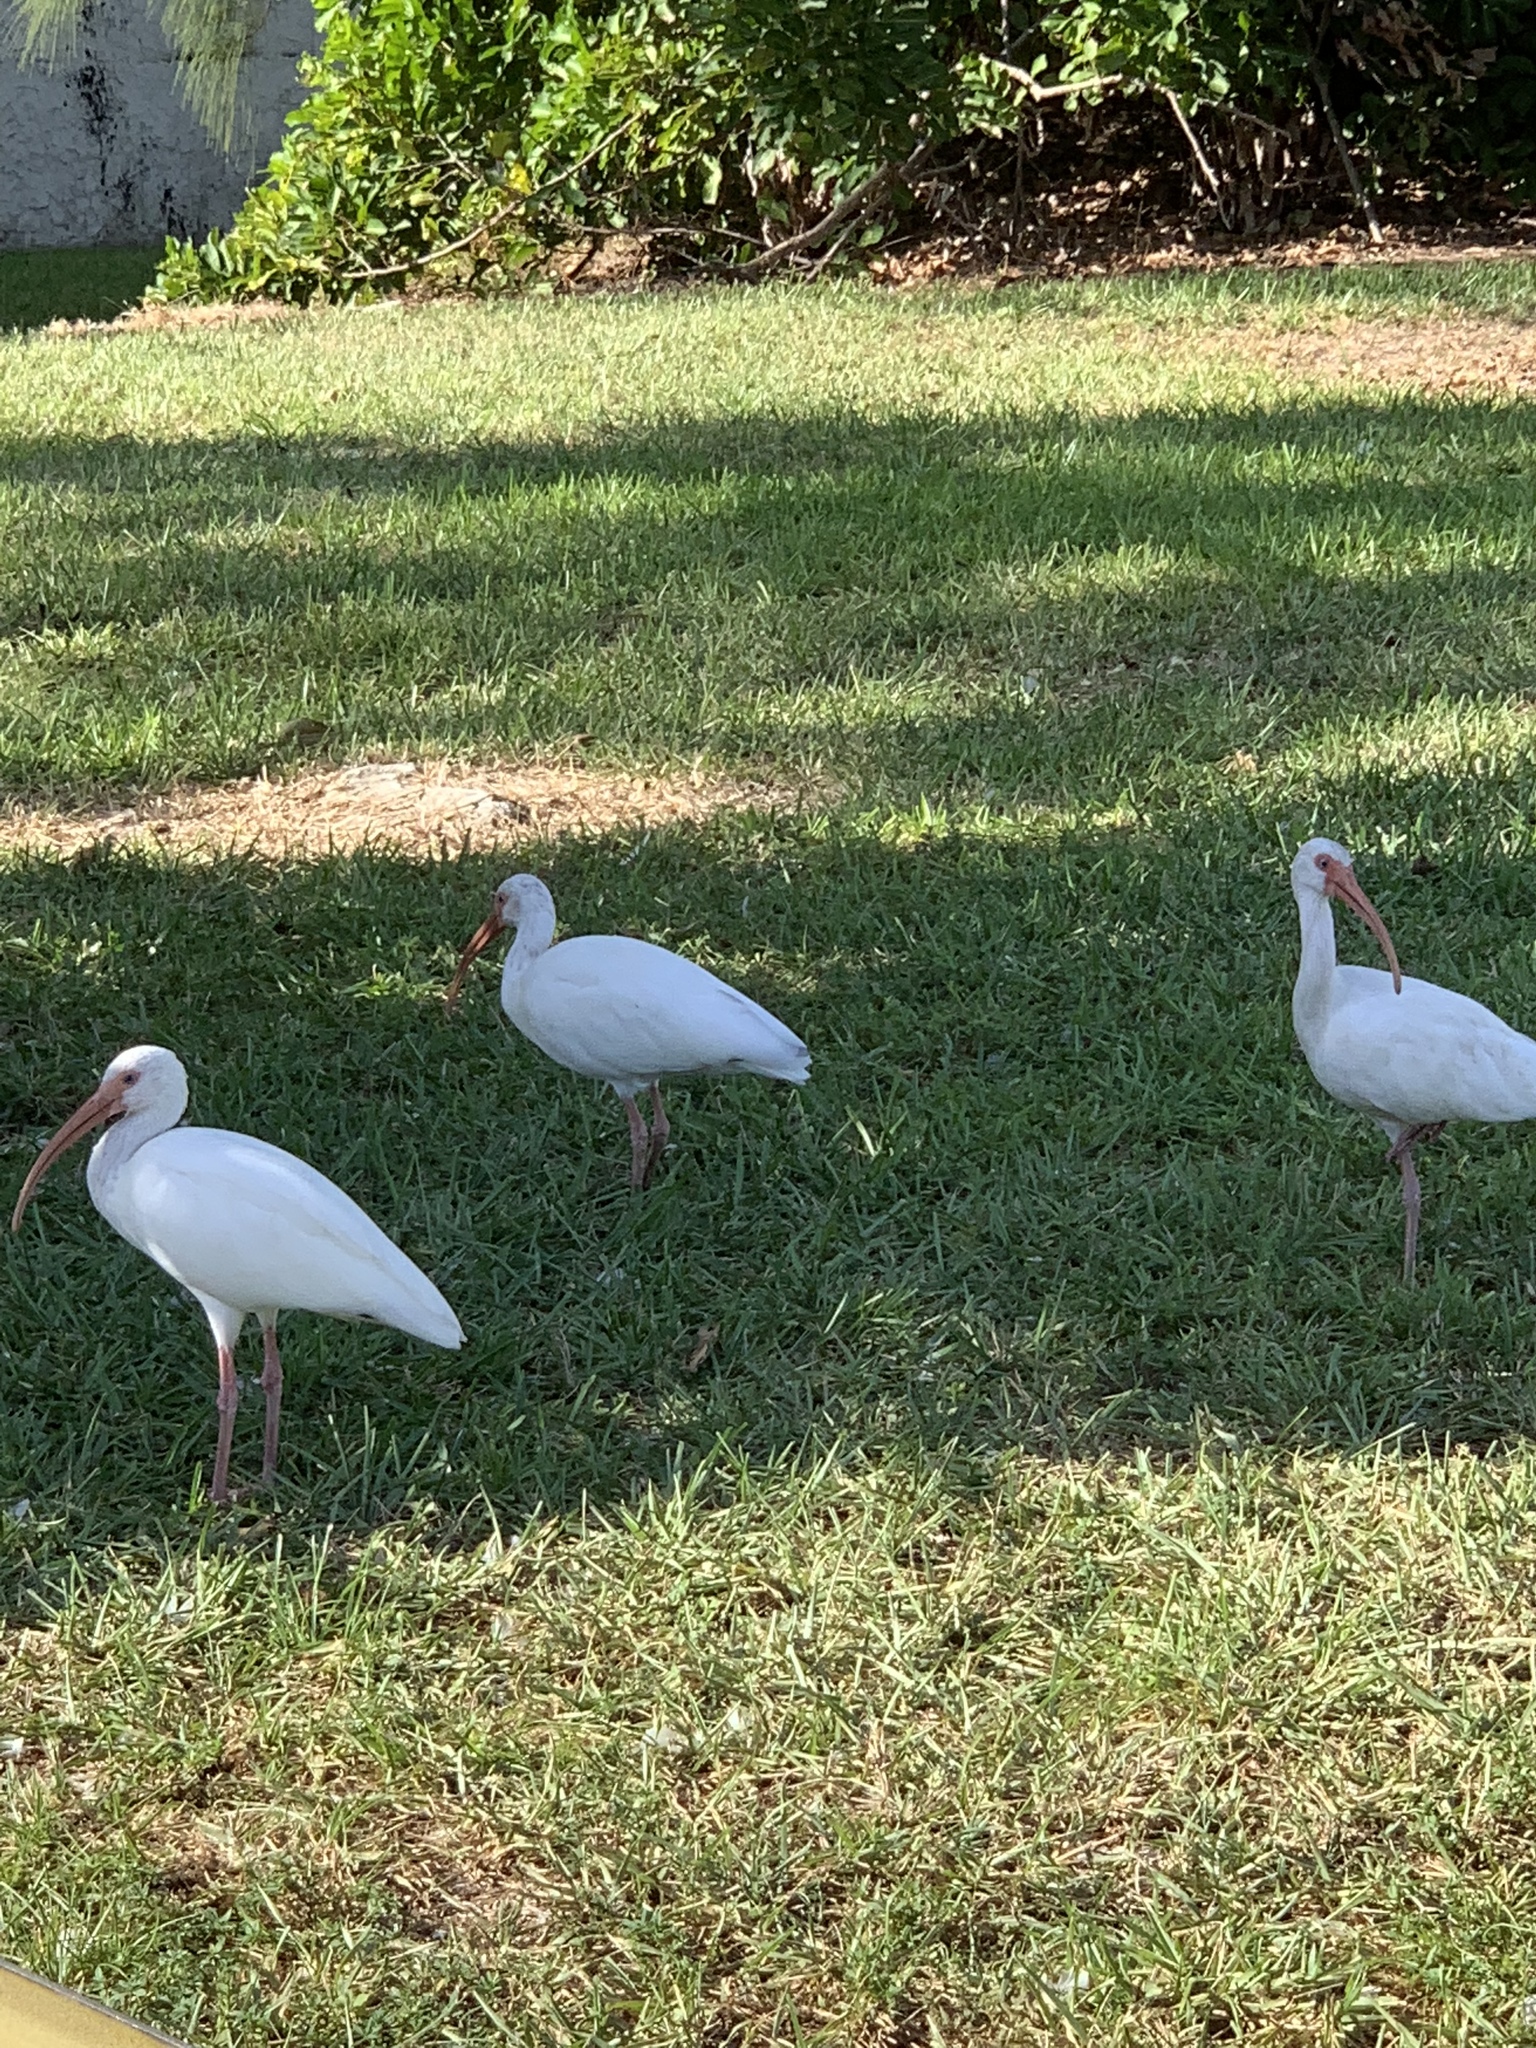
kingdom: Animalia
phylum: Chordata
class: Aves
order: Pelecaniformes
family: Threskiornithidae
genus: Eudocimus
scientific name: Eudocimus albus
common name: White ibis
